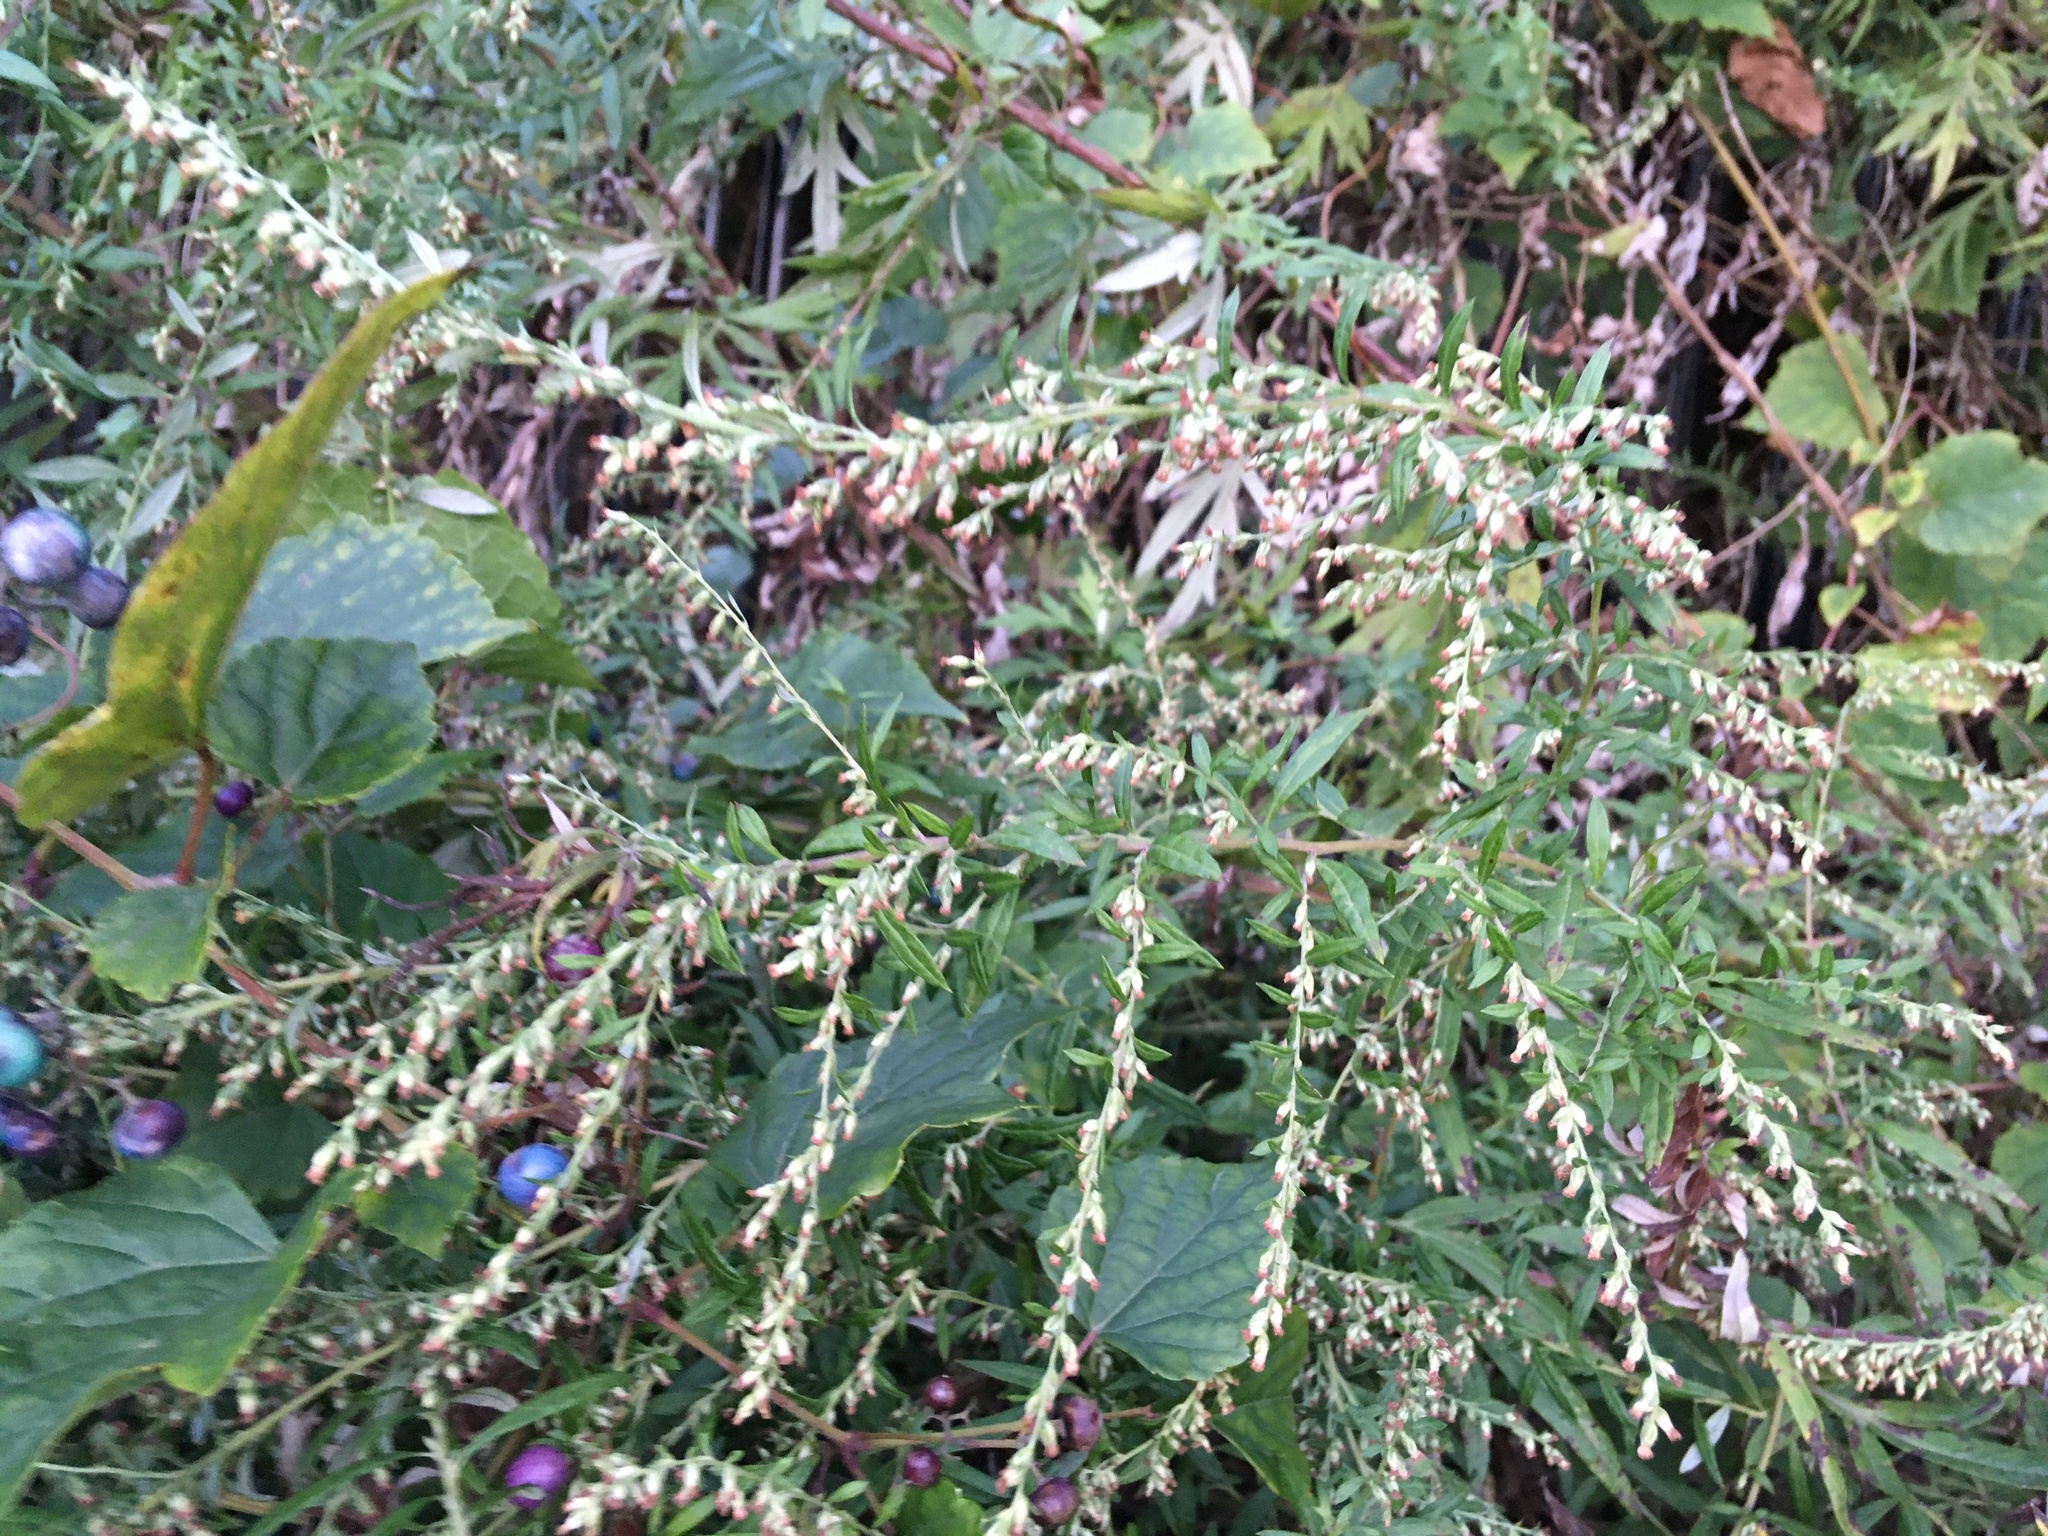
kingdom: Plantae
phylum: Tracheophyta
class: Magnoliopsida
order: Asterales
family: Asteraceae
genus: Artemisia
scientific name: Artemisia vulgaris
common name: Mugwort
